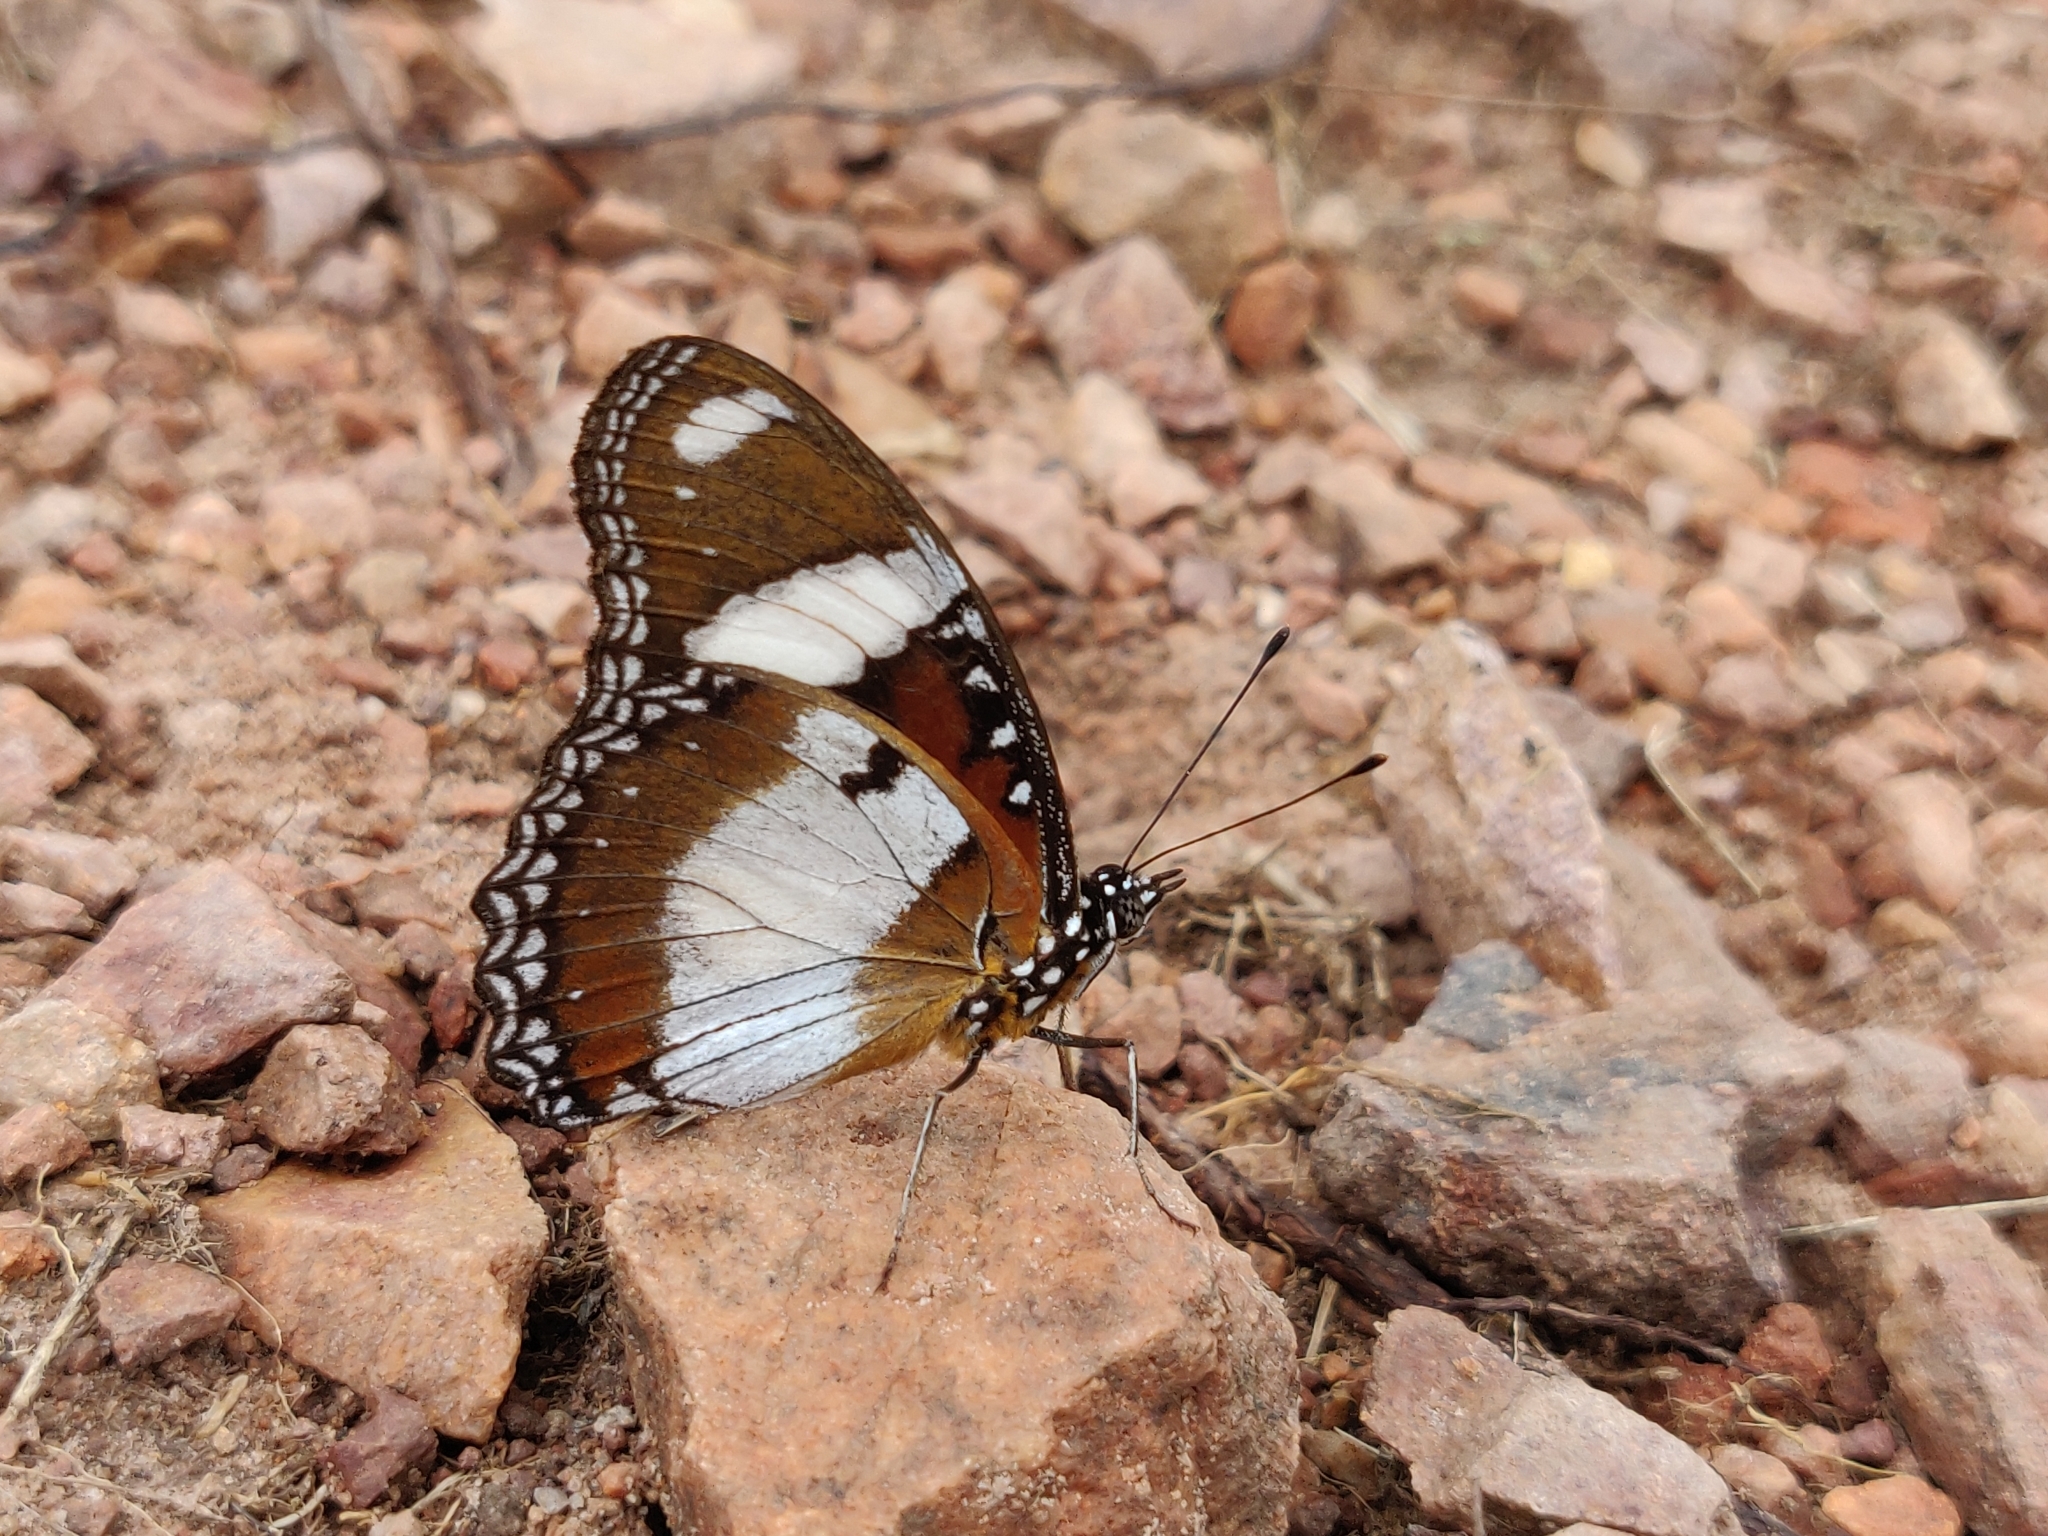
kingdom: Animalia
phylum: Arthropoda
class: Insecta
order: Lepidoptera
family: Nymphalidae
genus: Hypolimnas
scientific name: Hypolimnas misippus
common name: False plain tiger
